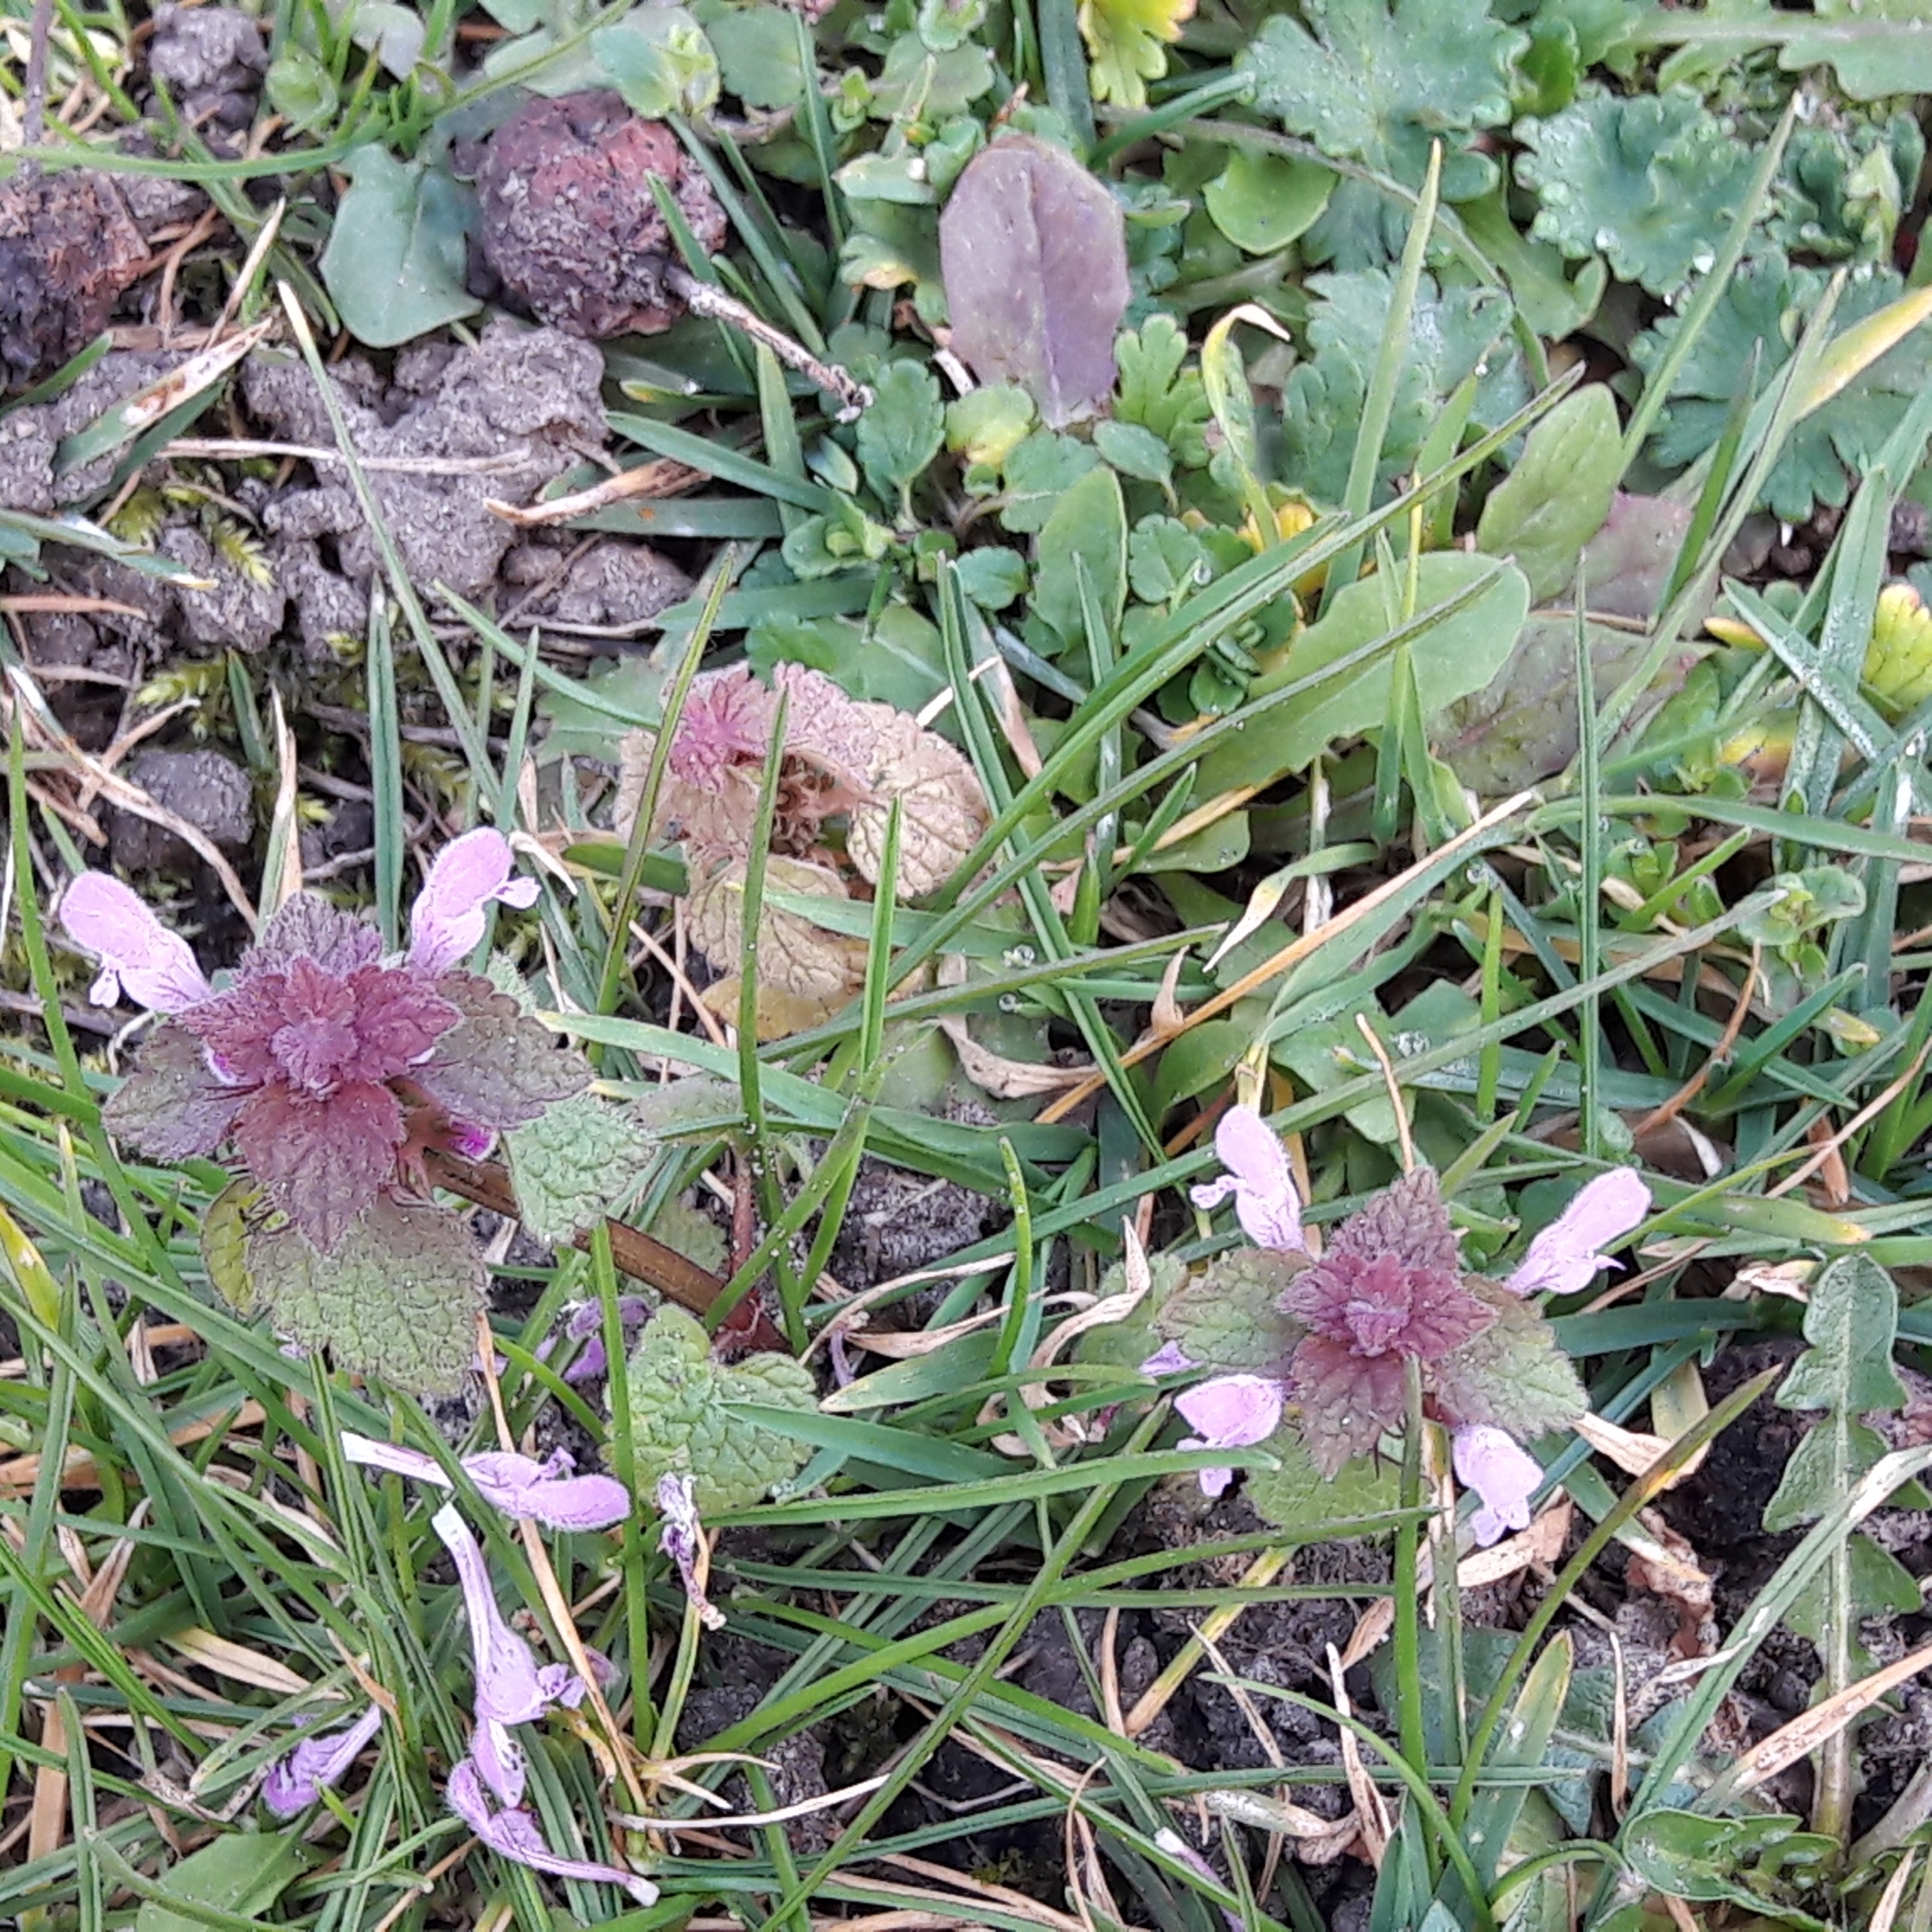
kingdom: Plantae
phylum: Tracheophyta
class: Magnoliopsida
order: Lamiales
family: Lamiaceae
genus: Lamium
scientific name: Lamium purpureum
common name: Red dead-nettle
